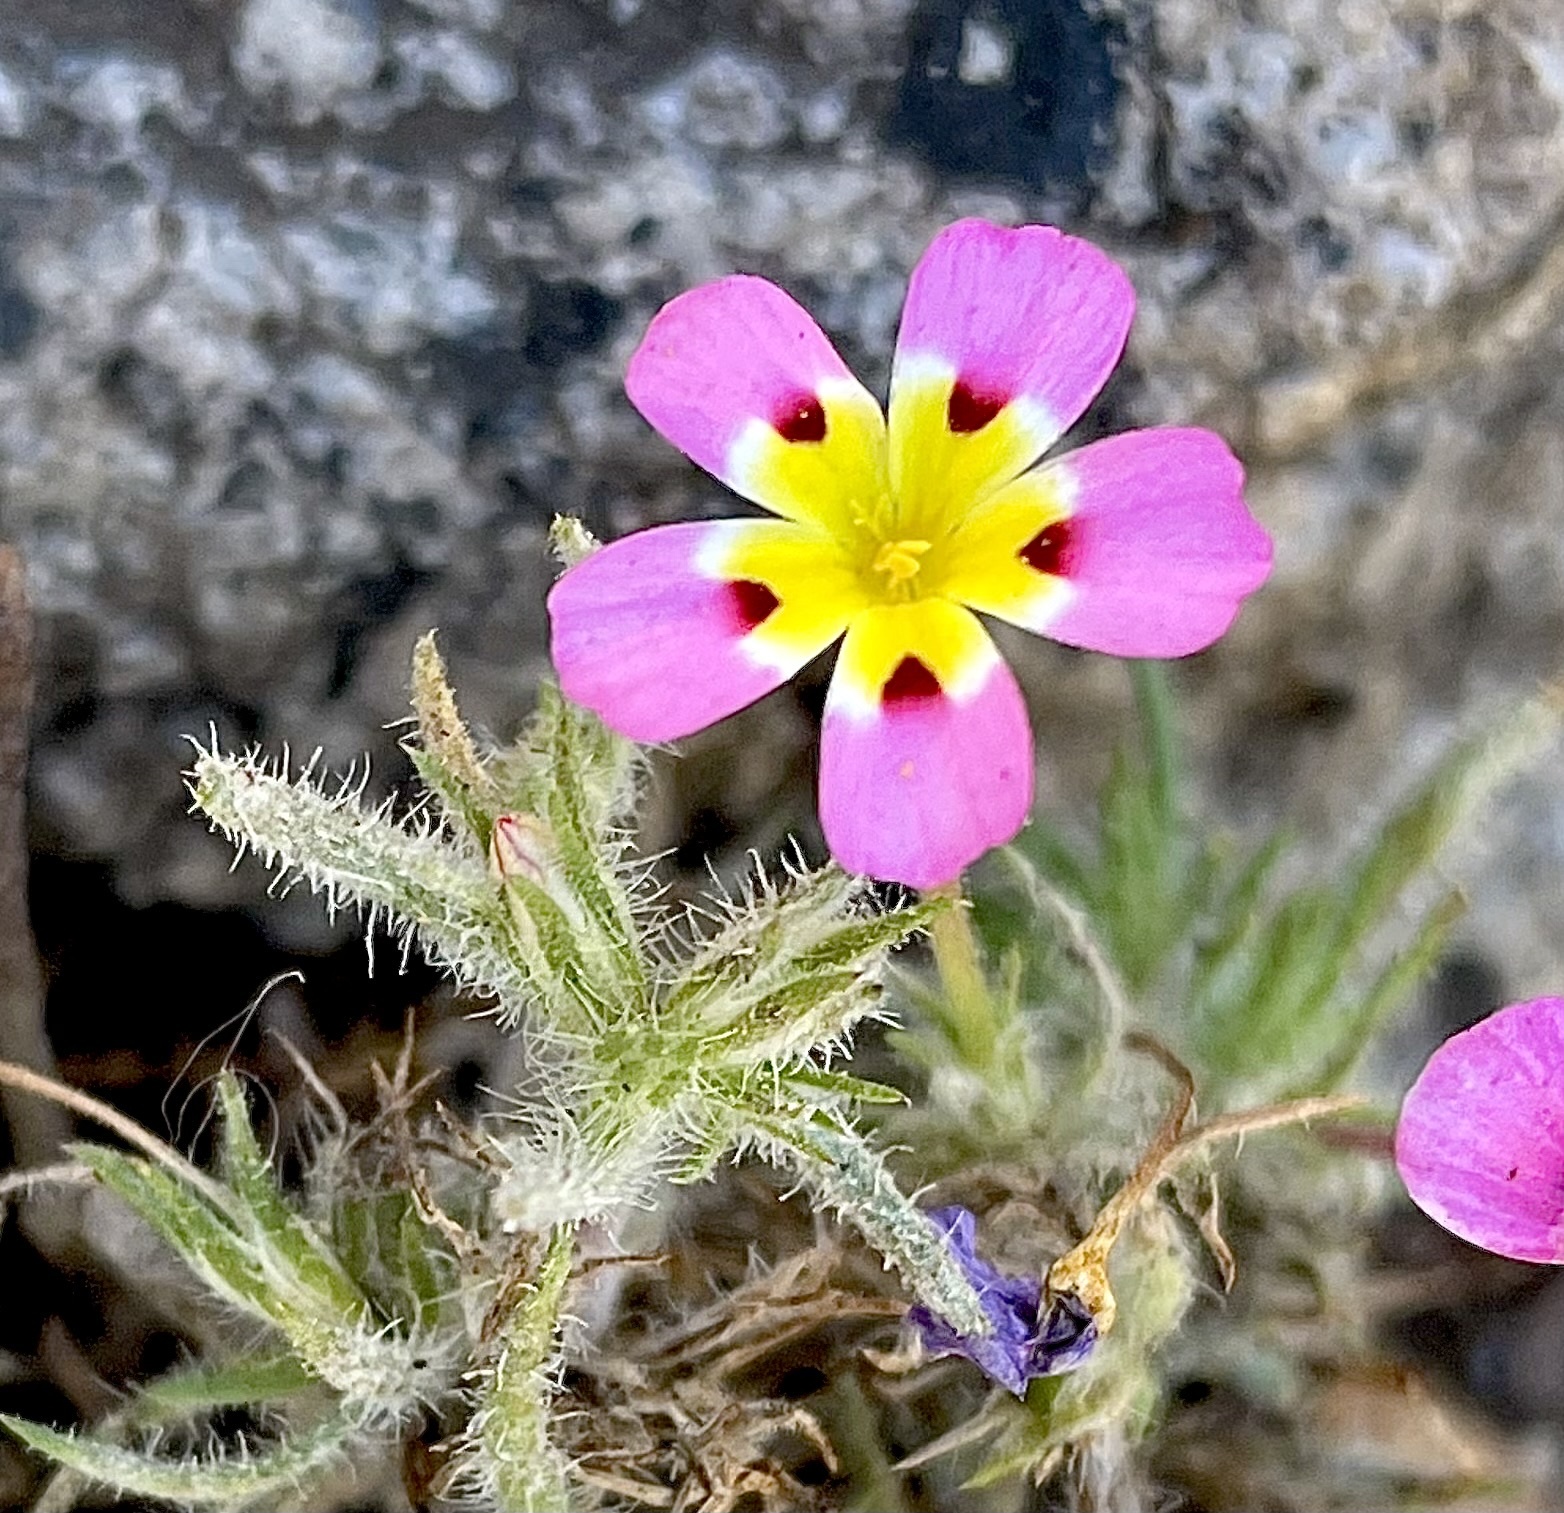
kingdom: Plantae
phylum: Tracheophyta
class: Magnoliopsida
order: Ericales
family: Polemoniaceae
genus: Leptosiphon
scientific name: Leptosiphon ciliatus
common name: Whiskerbrush
